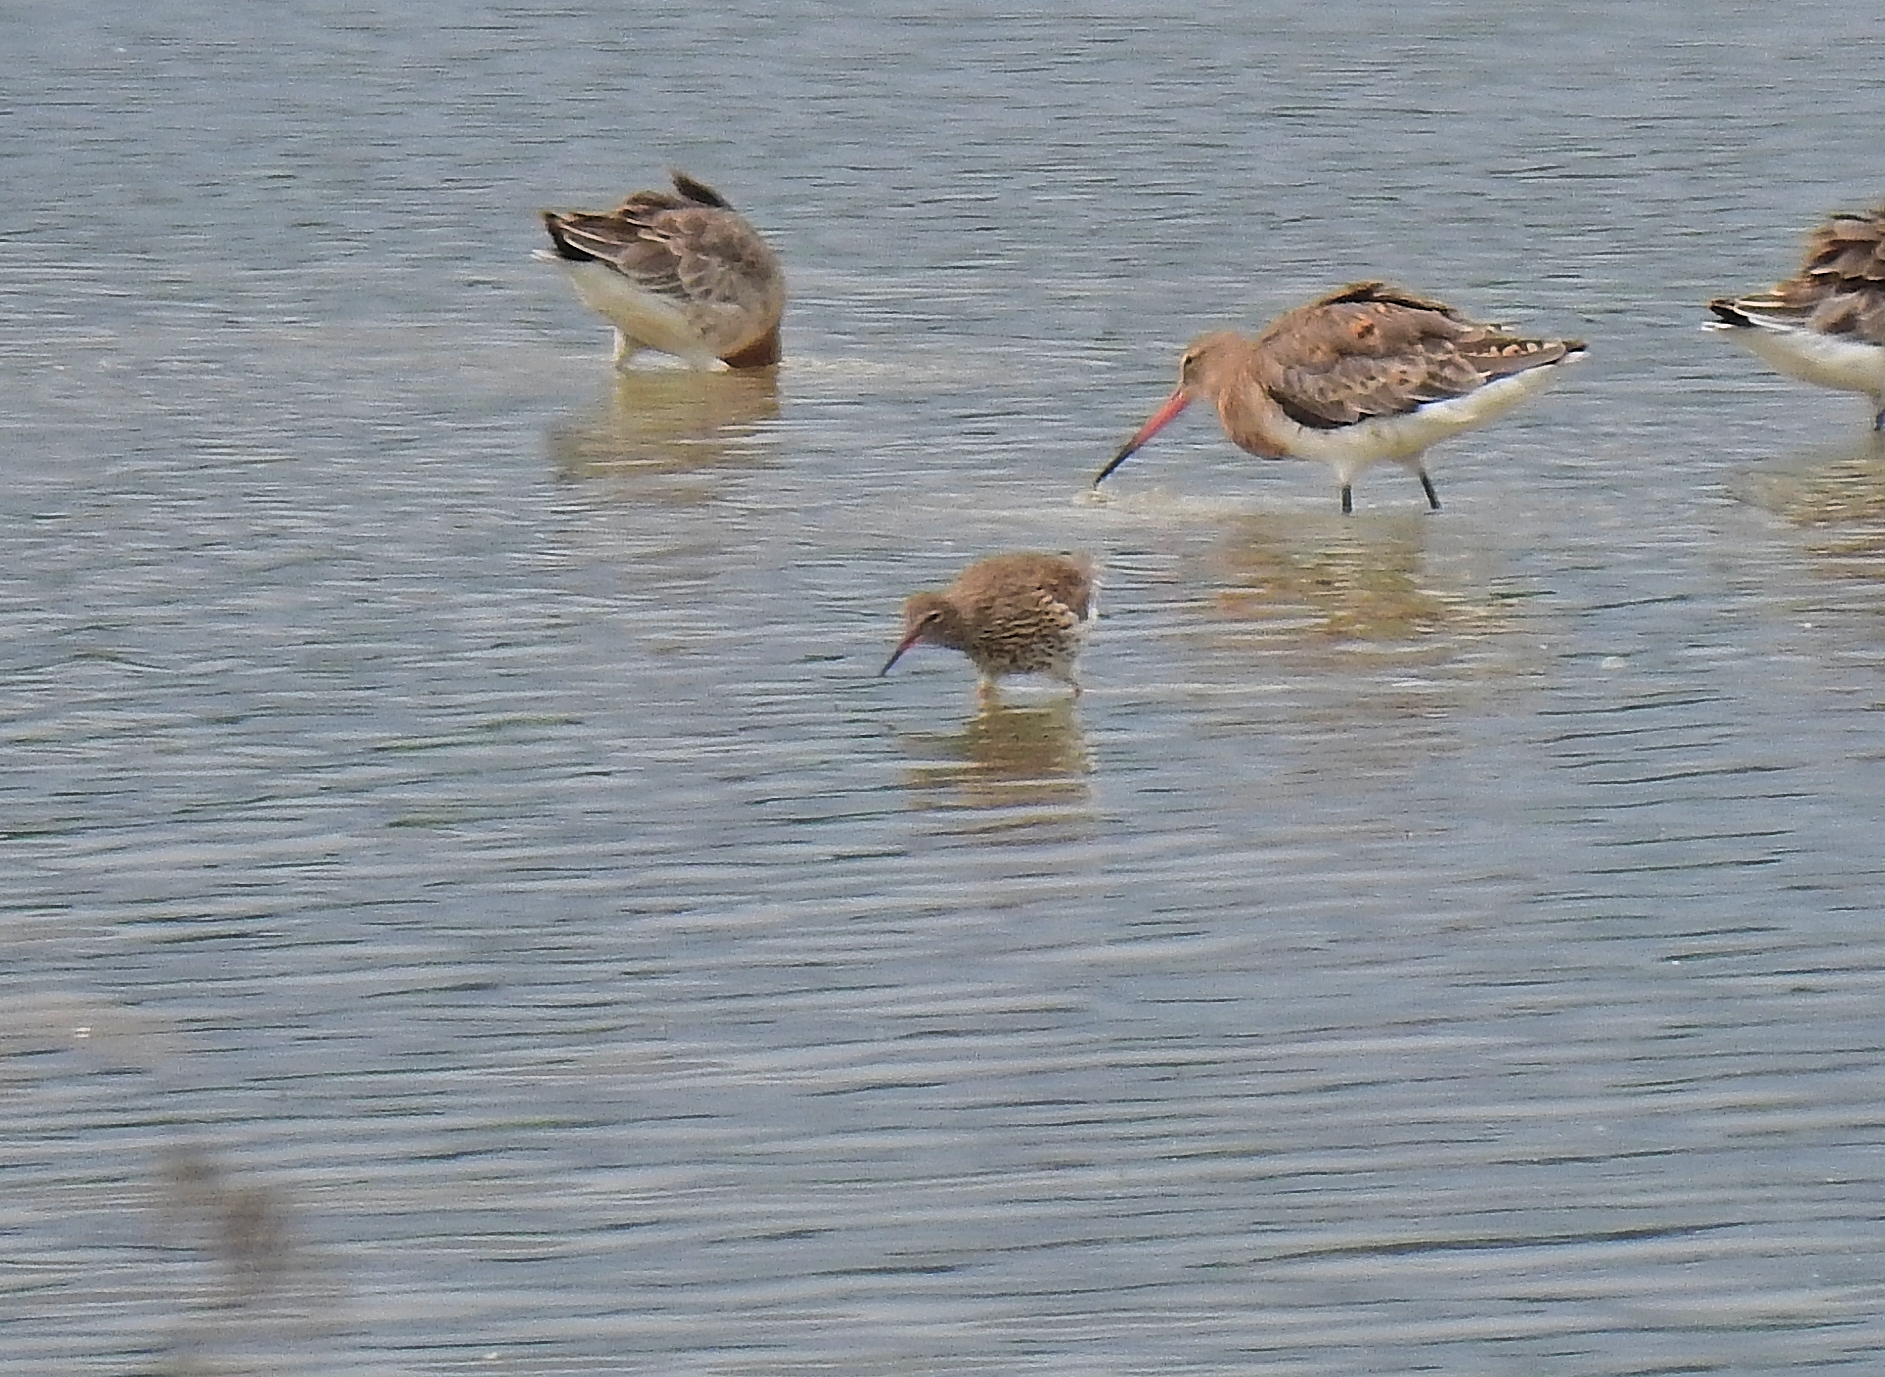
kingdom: Animalia
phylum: Chordata
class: Aves
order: Charadriiformes
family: Scolopacidae
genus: Tringa
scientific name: Tringa totanus
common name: Common redshank
